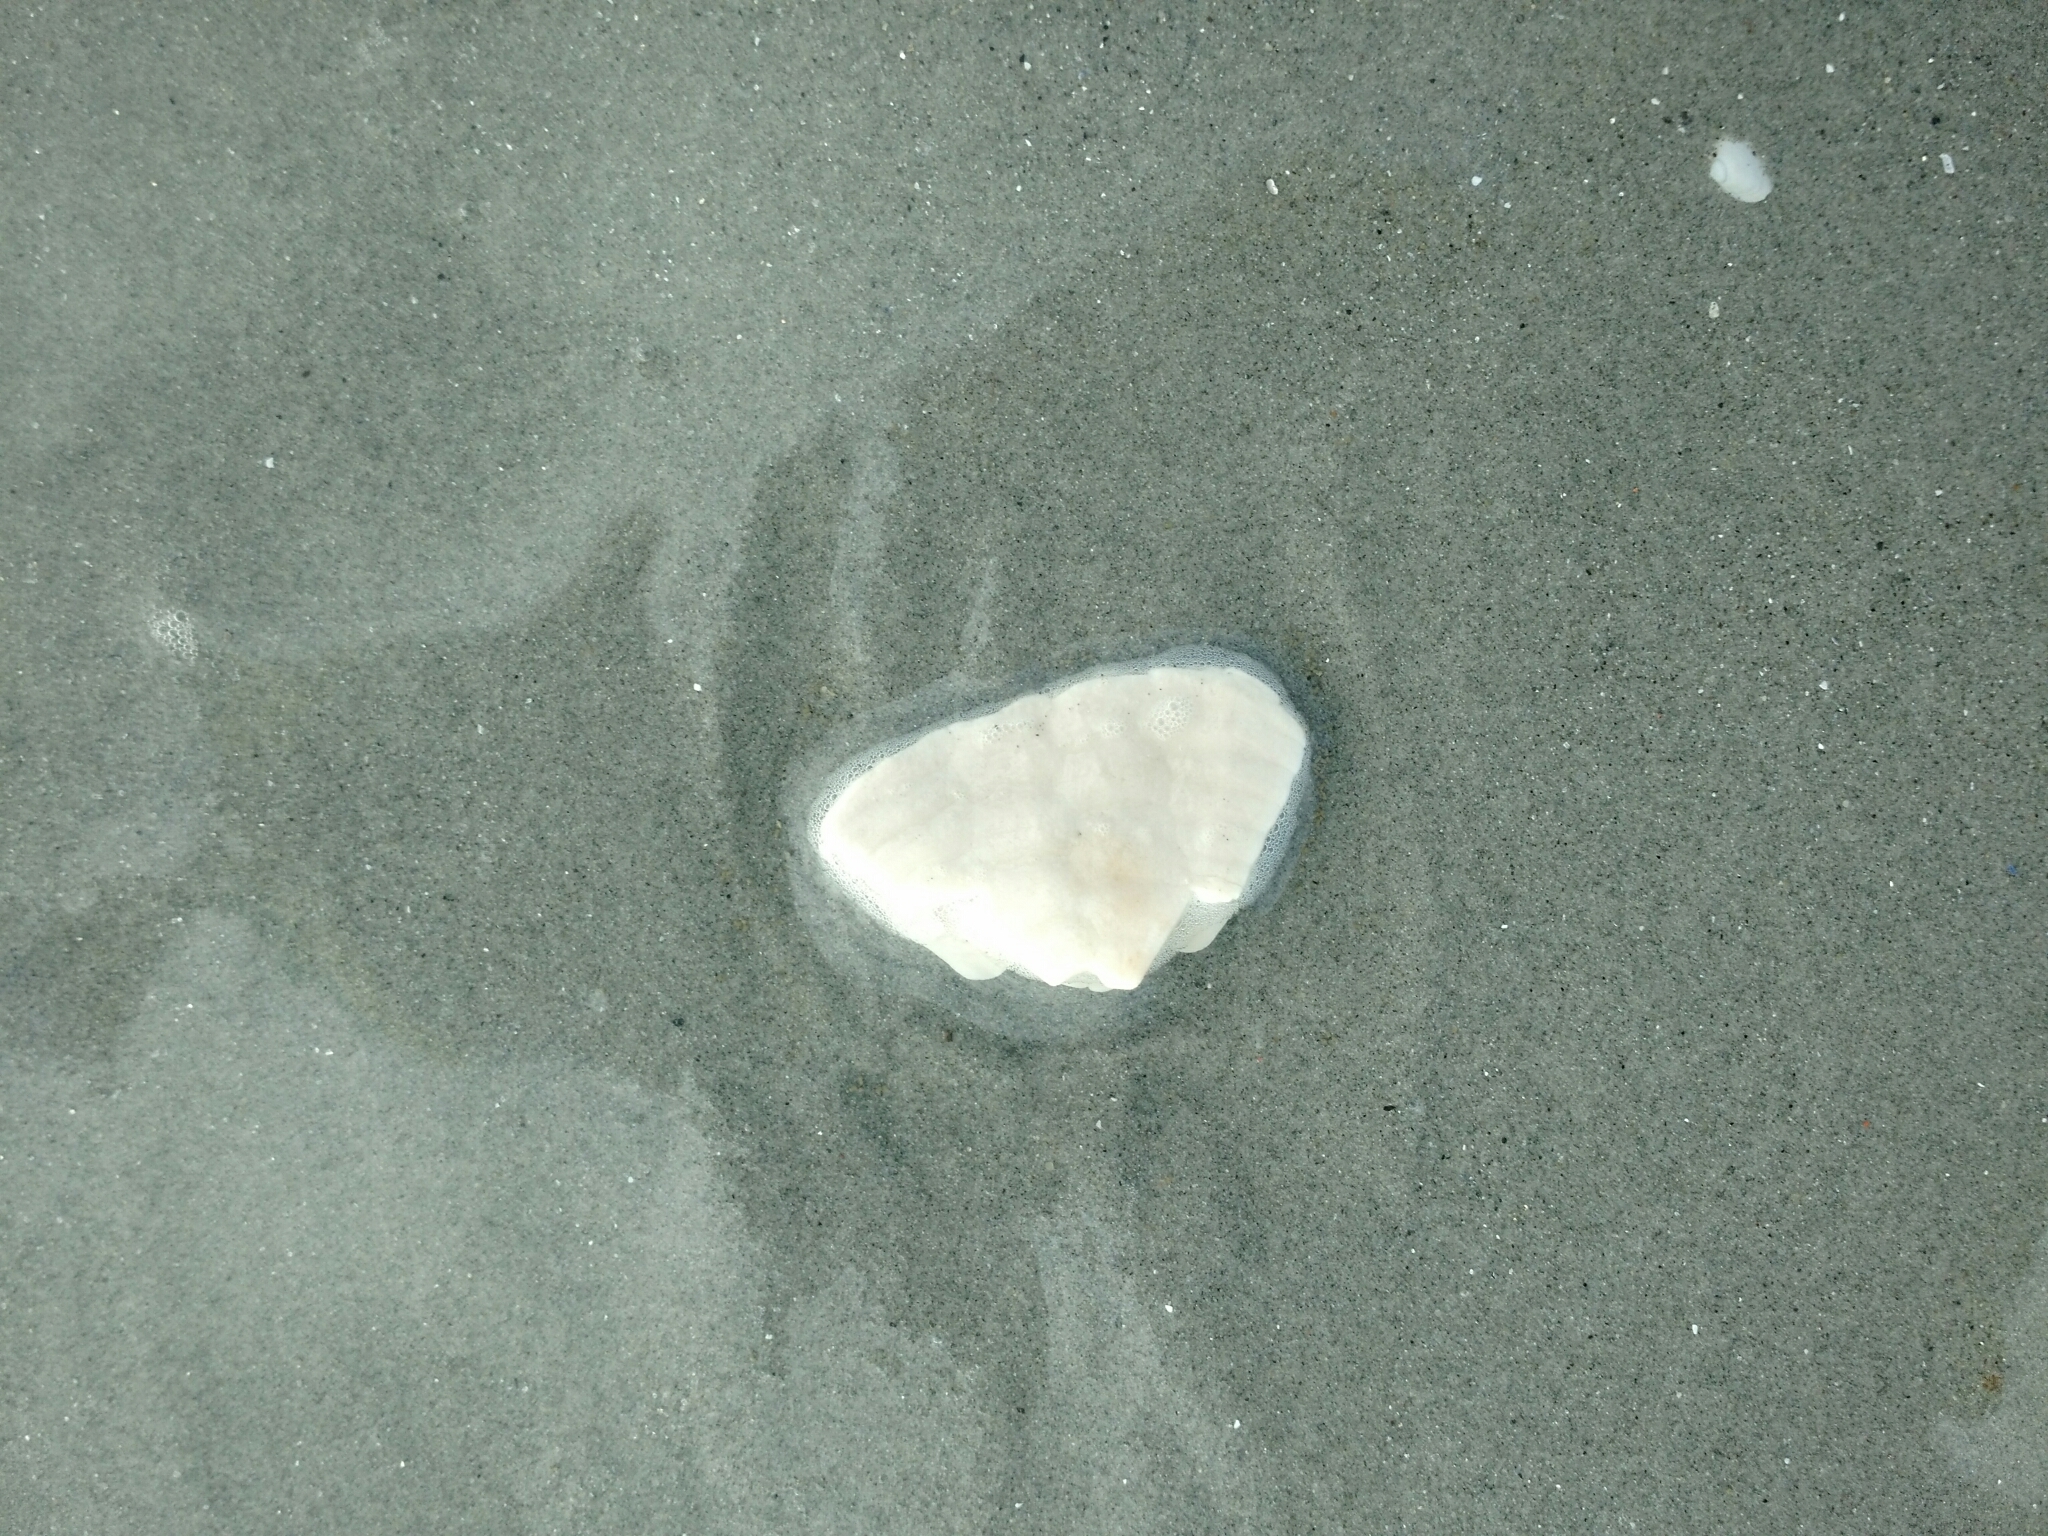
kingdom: Animalia
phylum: Echinodermata
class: Echinoidea
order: Echinolampadacea
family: Echinarachniidae
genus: Echinarachnius
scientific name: Echinarachnius parma
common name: Common sand dollar
